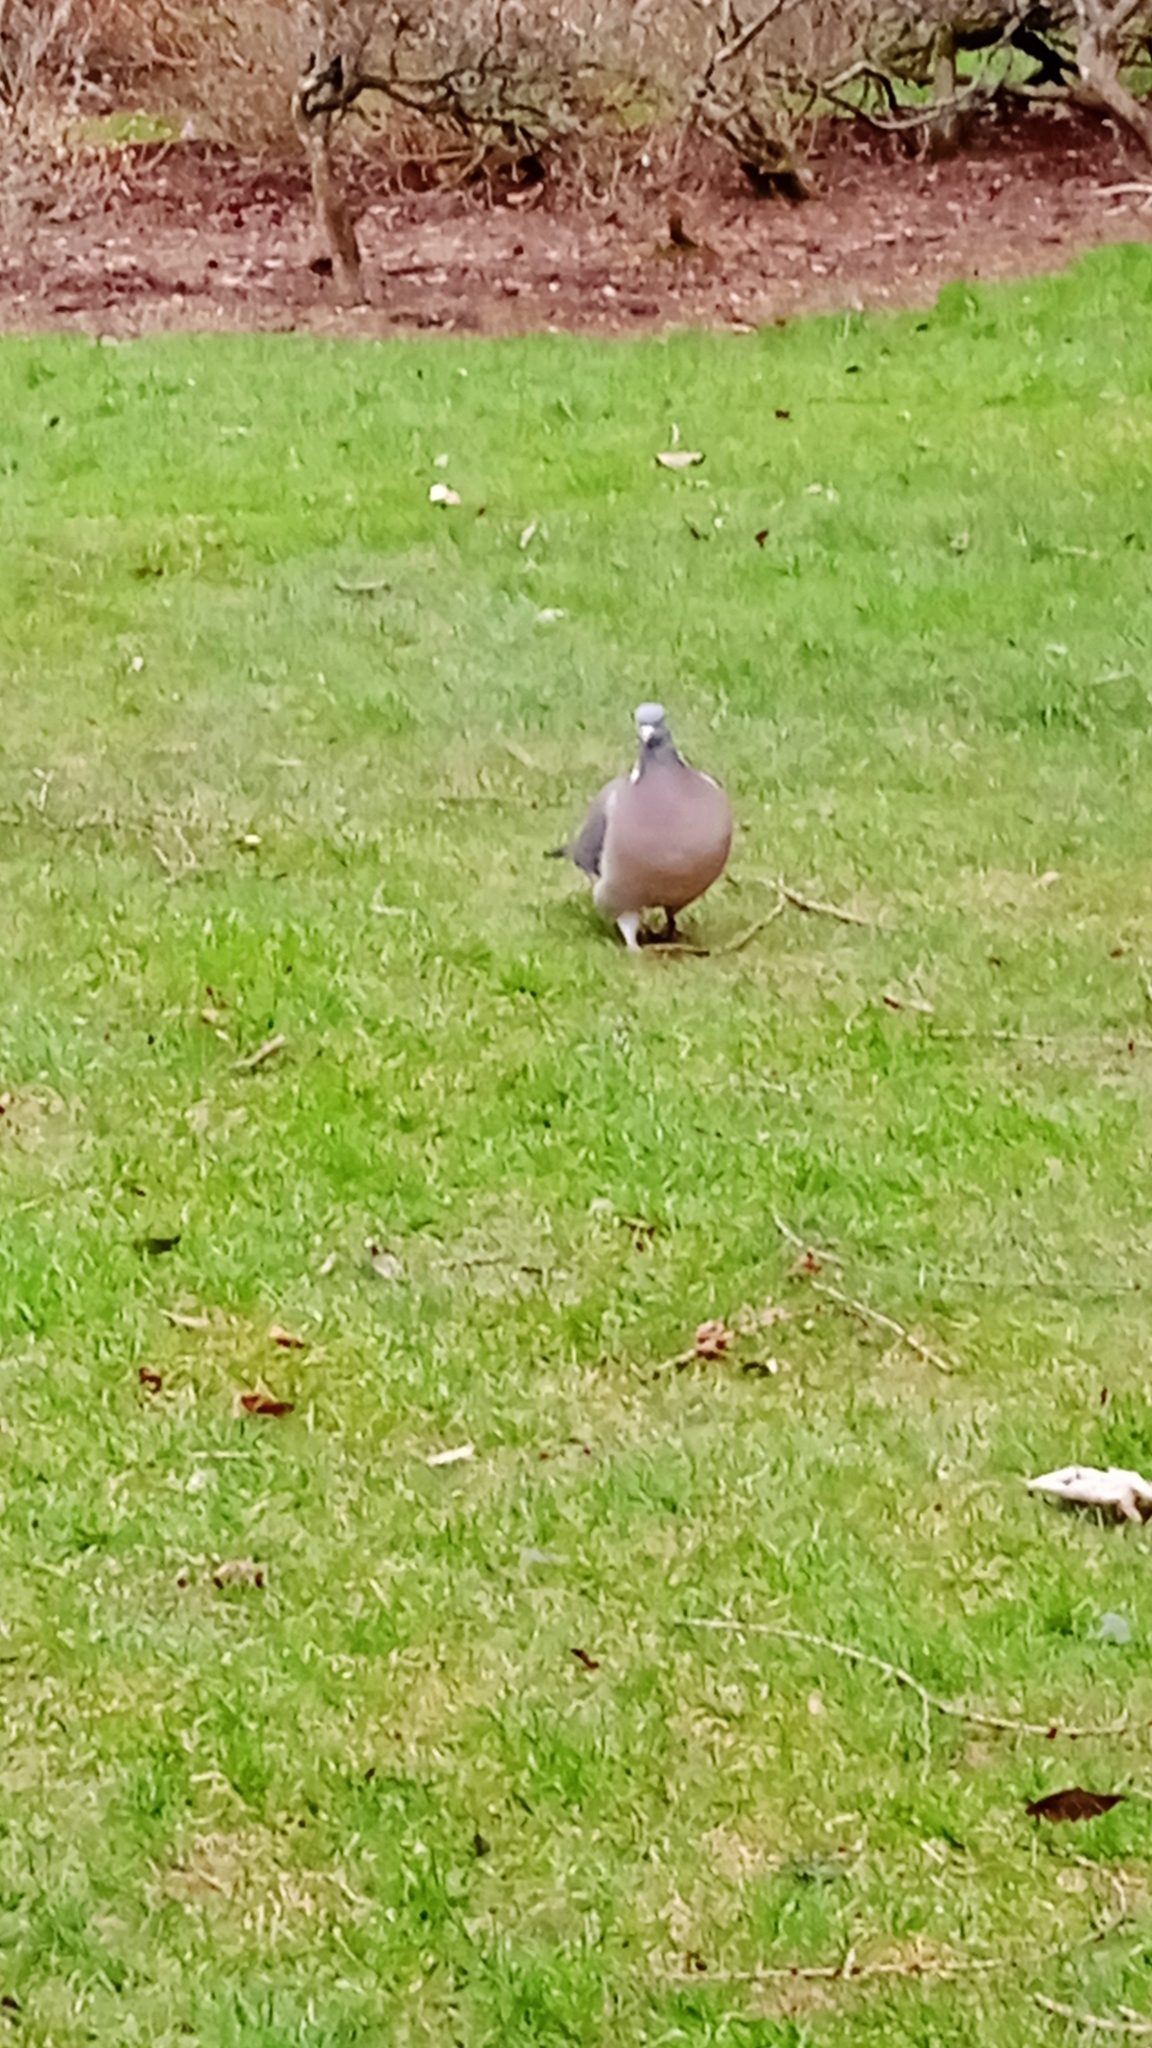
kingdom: Animalia
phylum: Chordata
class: Aves
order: Columbiformes
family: Columbidae
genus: Columba
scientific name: Columba palumbus
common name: Common wood pigeon
